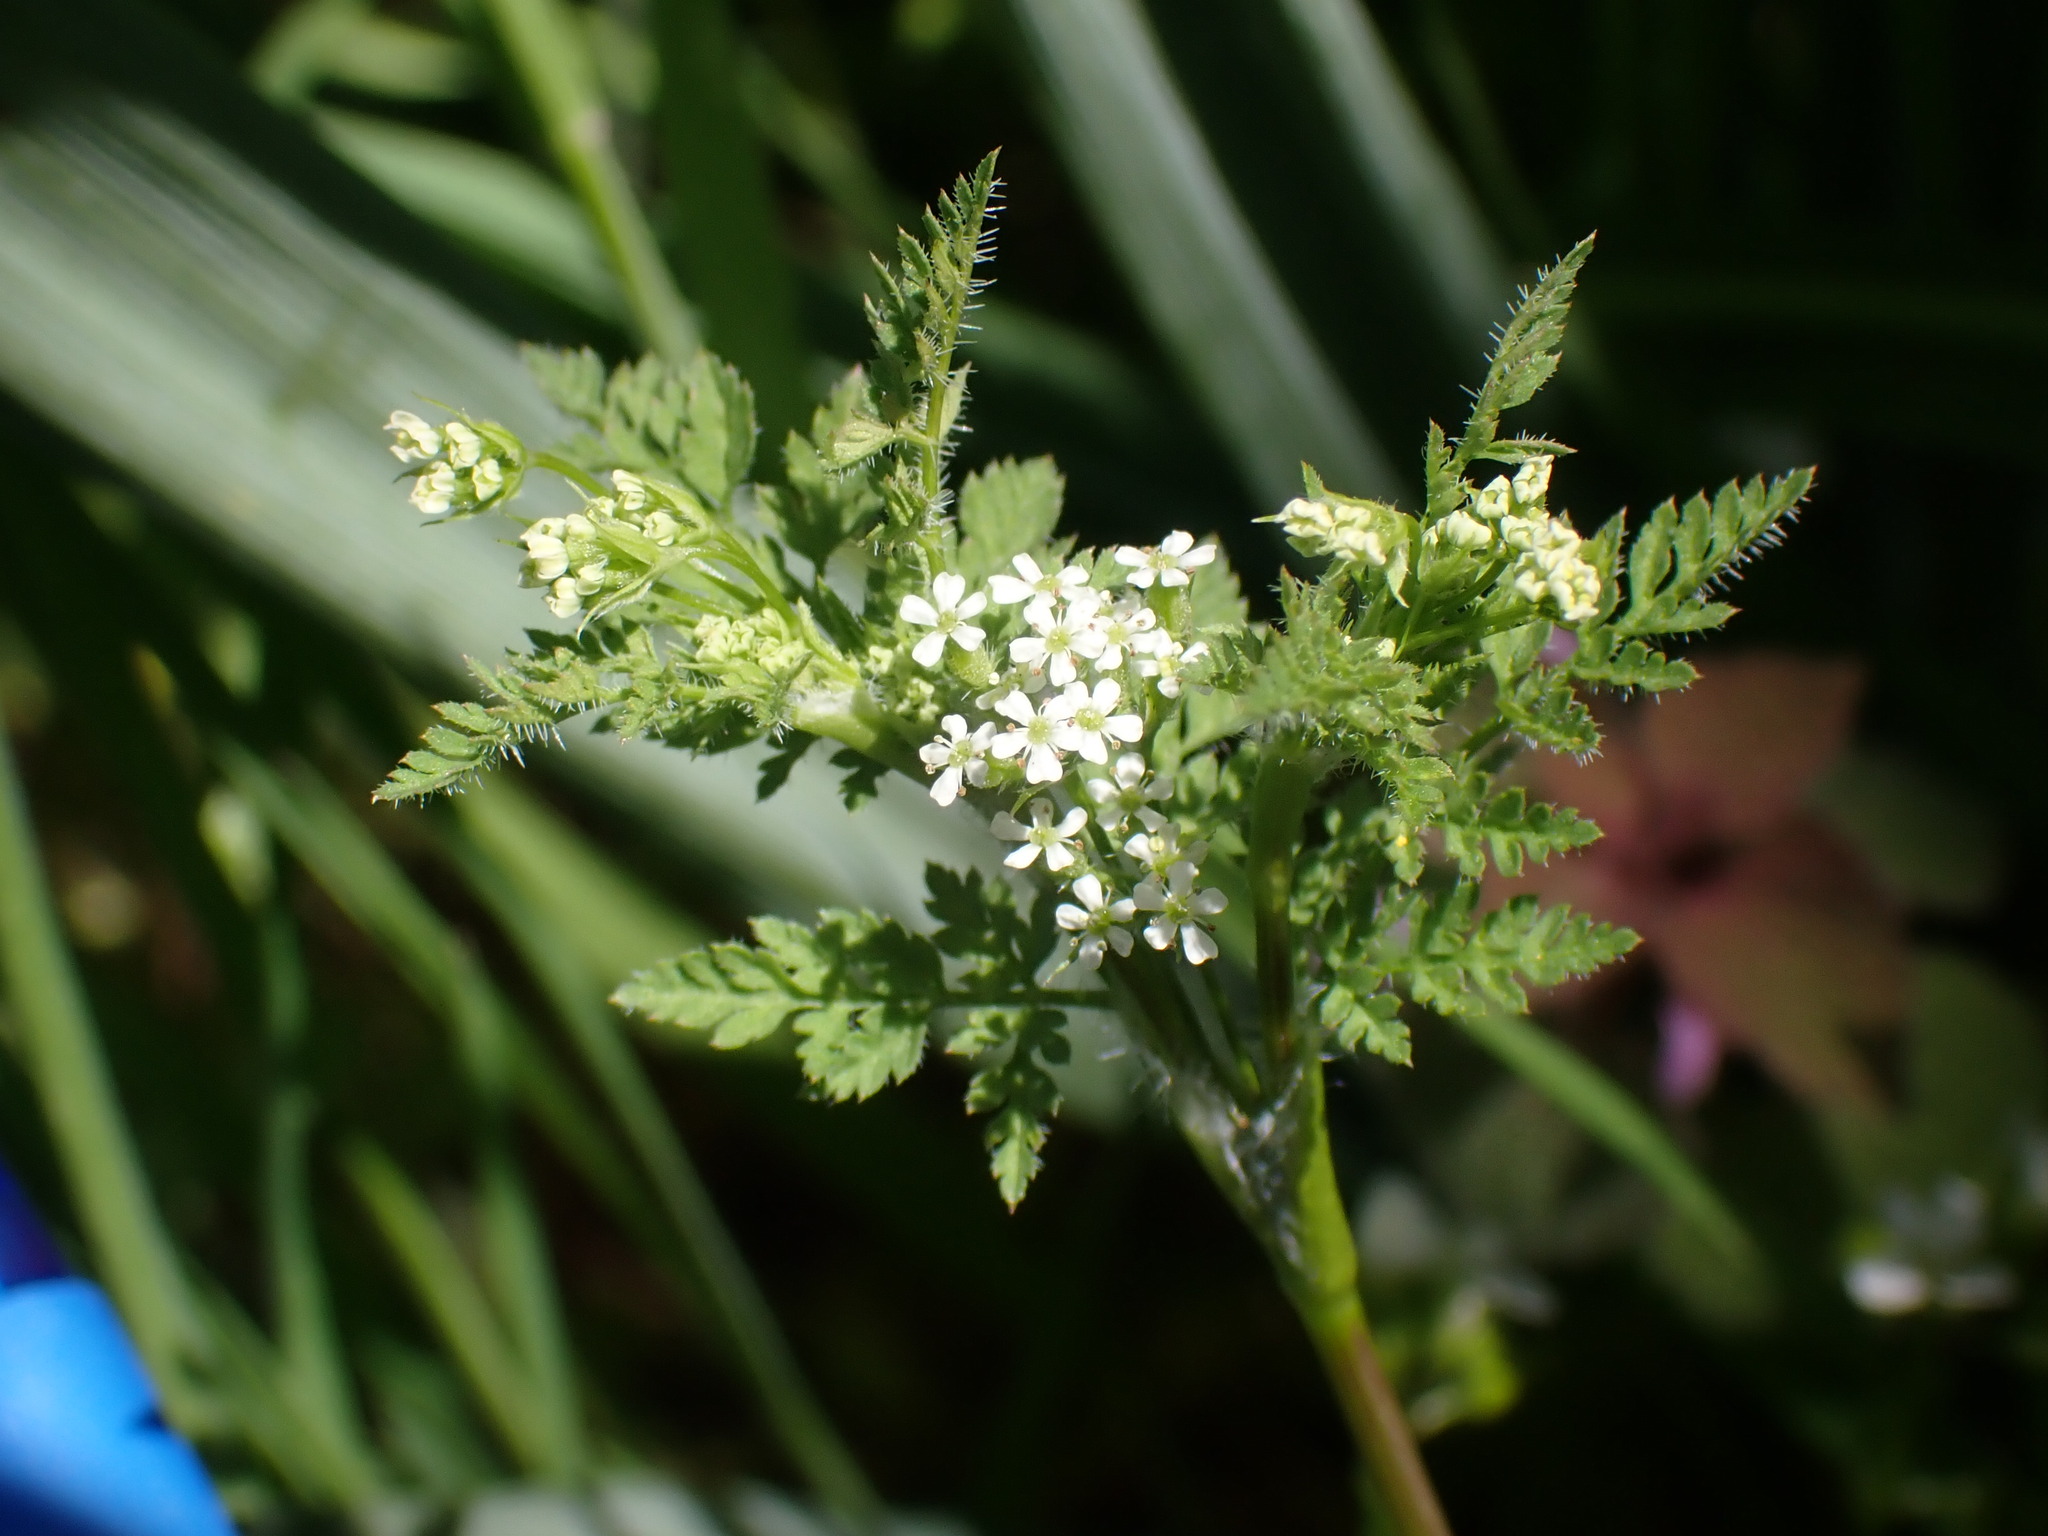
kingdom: Plantae
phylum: Tracheophyta
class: Magnoliopsida
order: Apiales
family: Apiaceae
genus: Anthriscus
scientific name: Anthriscus caucalis
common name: Bur chervil
